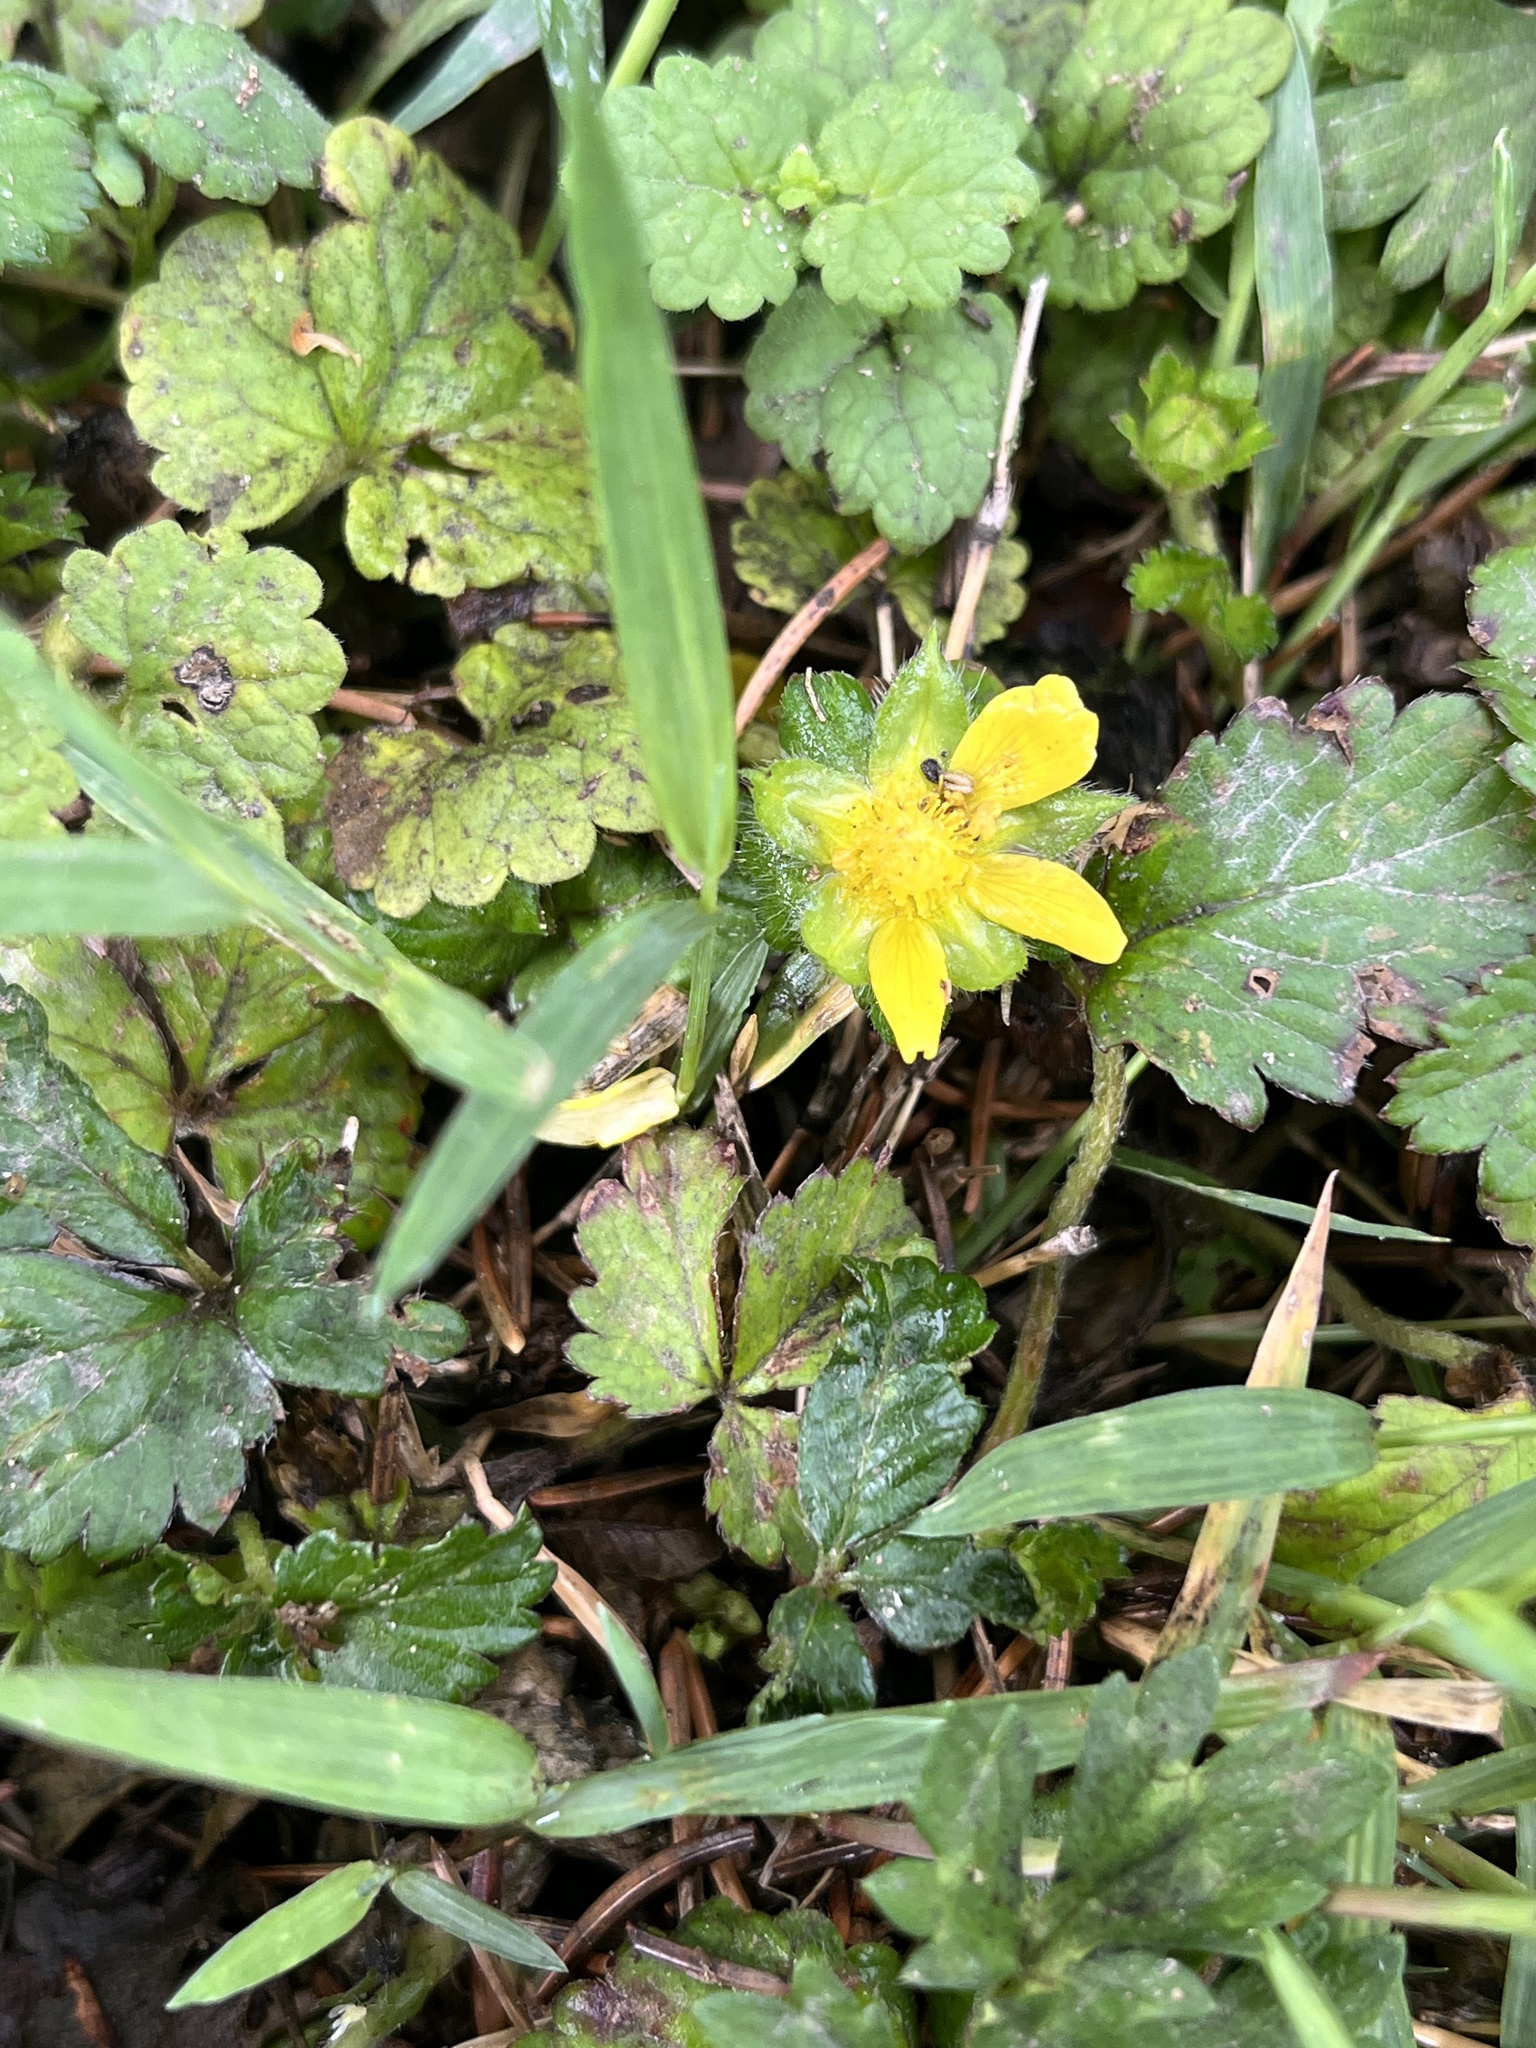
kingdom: Plantae
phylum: Tracheophyta
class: Magnoliopsida
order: Rosales
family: Rosaceae
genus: Potentilla
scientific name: Potentilla indica
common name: Yellow-flowered strawberry
